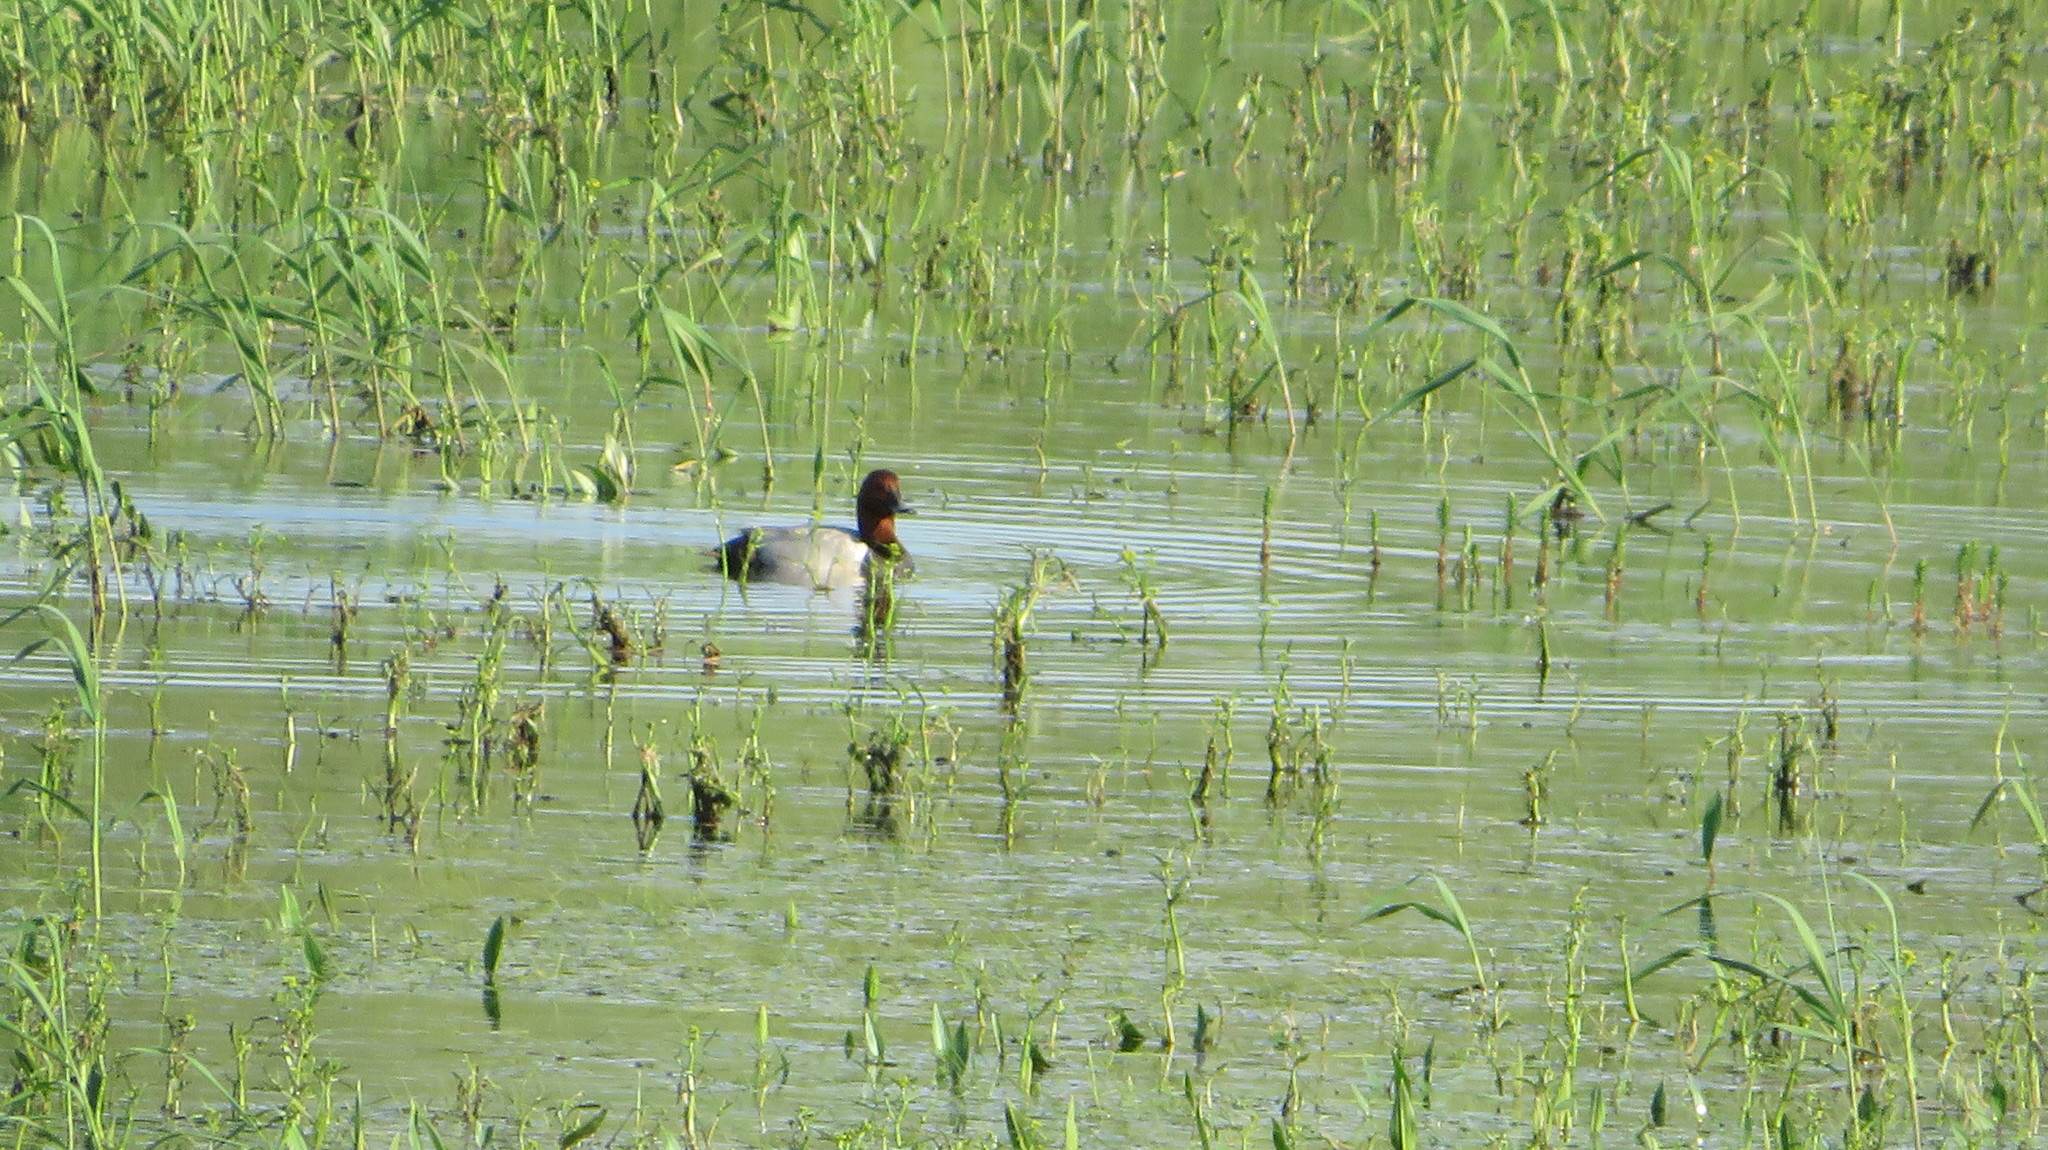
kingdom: Animalia
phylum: Chordata
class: Aves
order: Anseriformes
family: Anatidae
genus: Aythya
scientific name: Aythya ferina
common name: Common pochard
